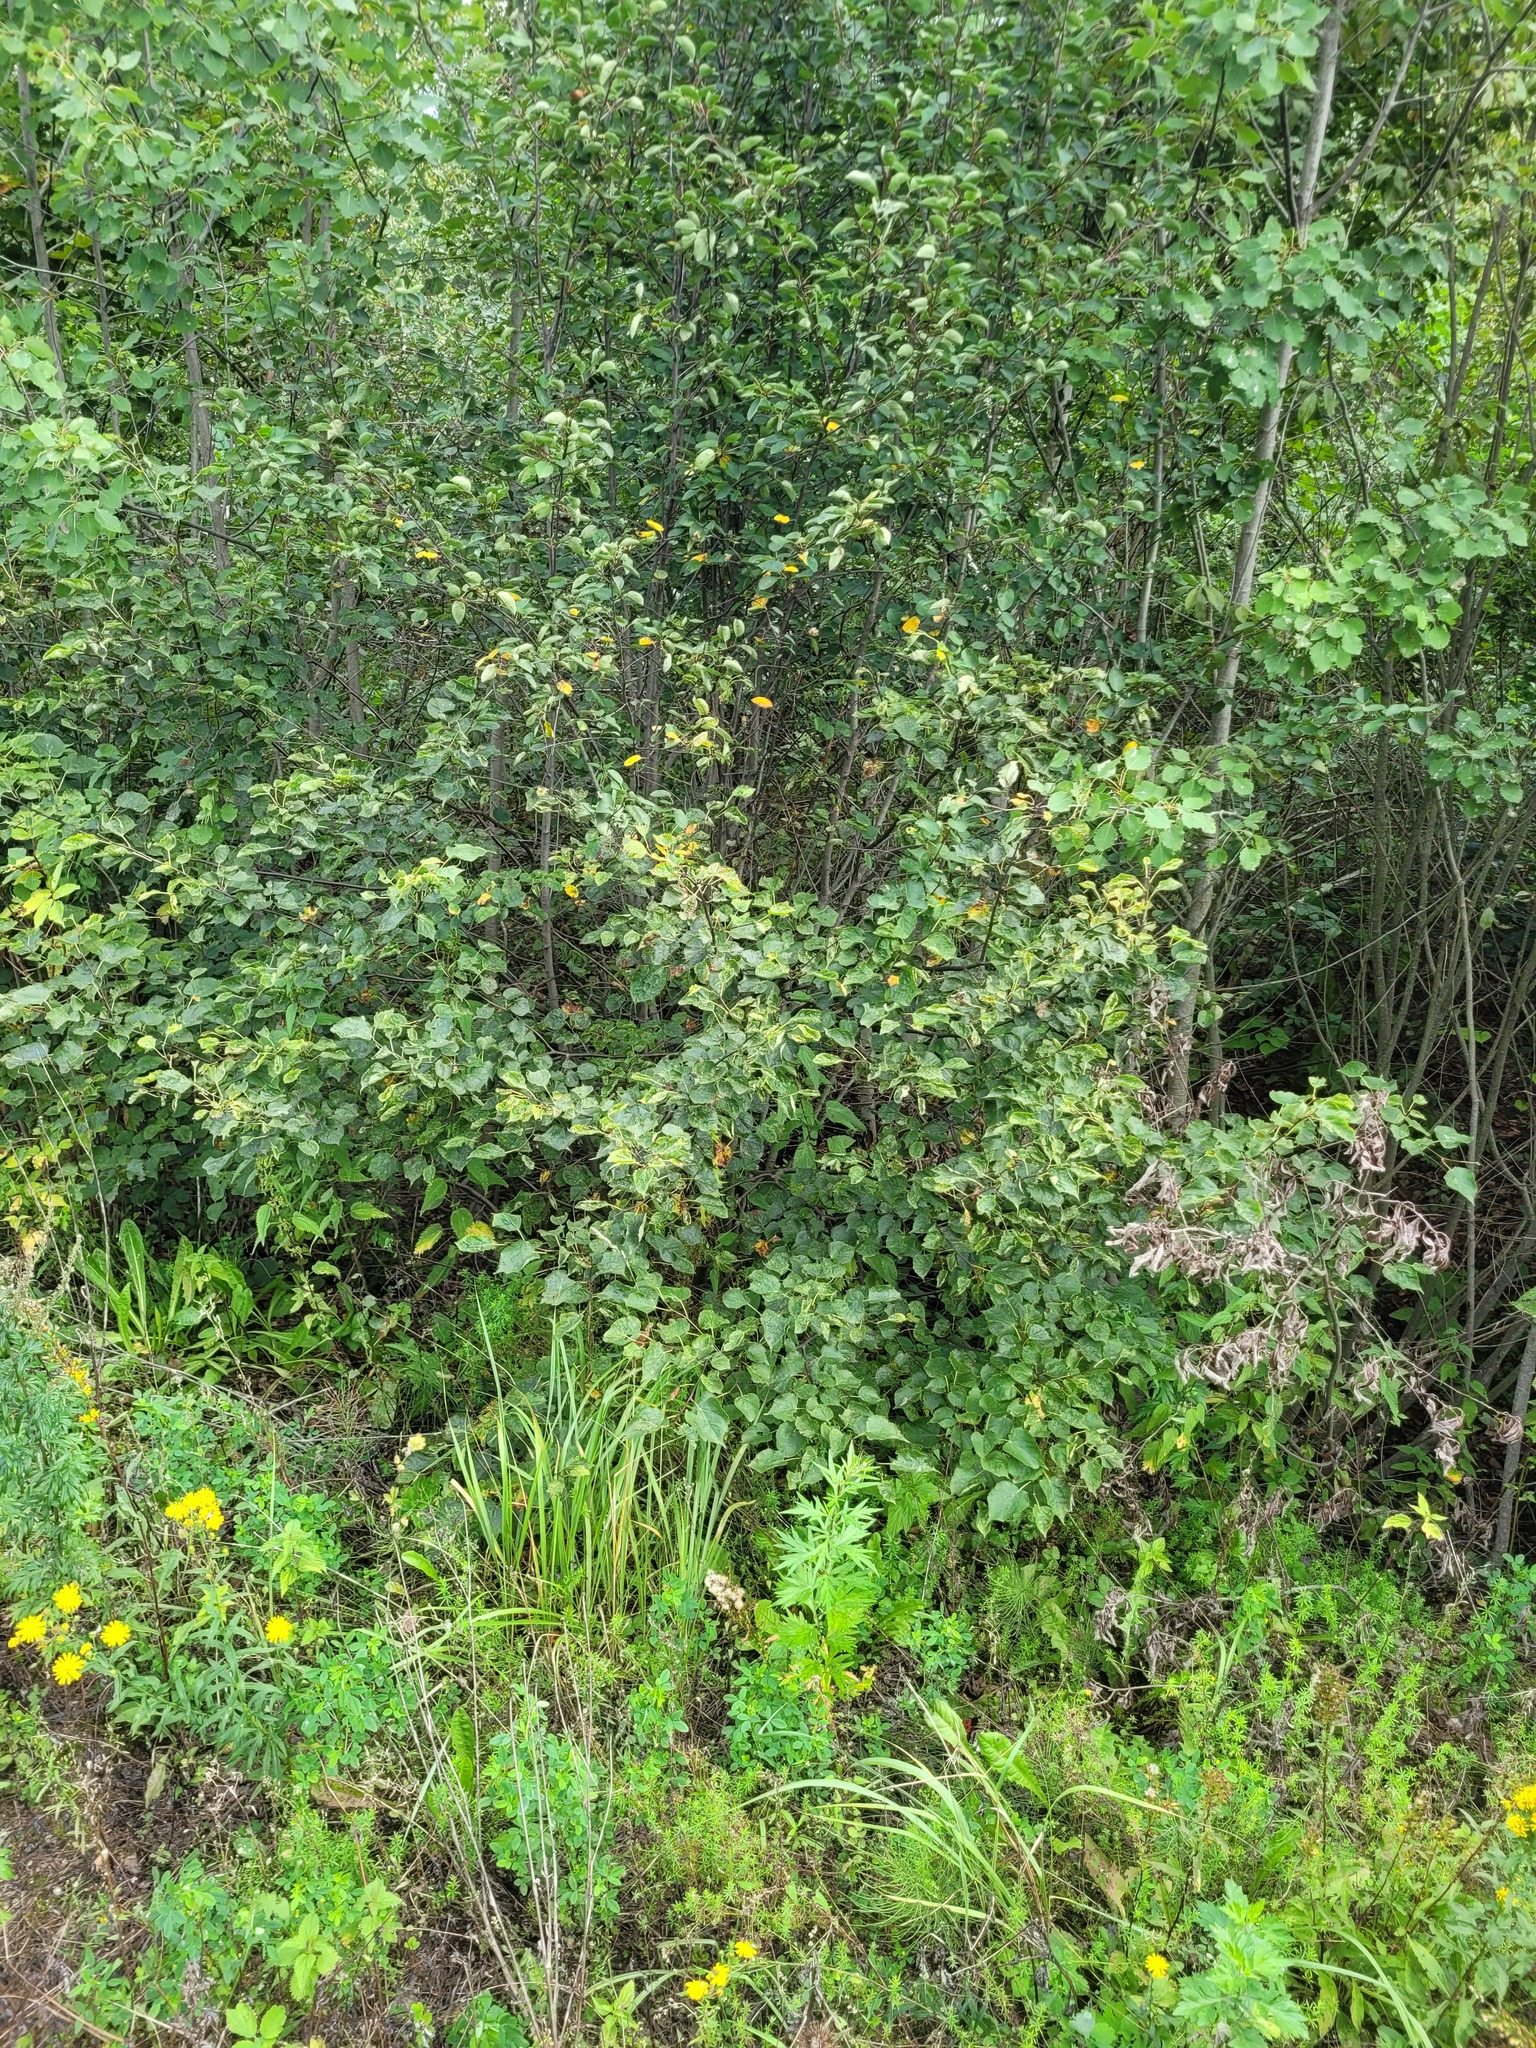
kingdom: Plantae
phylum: Tracheophyta
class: Magnoliopsida
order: Malvales
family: Malvaceae
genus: Tilia
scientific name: Tilia cordata
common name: Small-leaved lime
